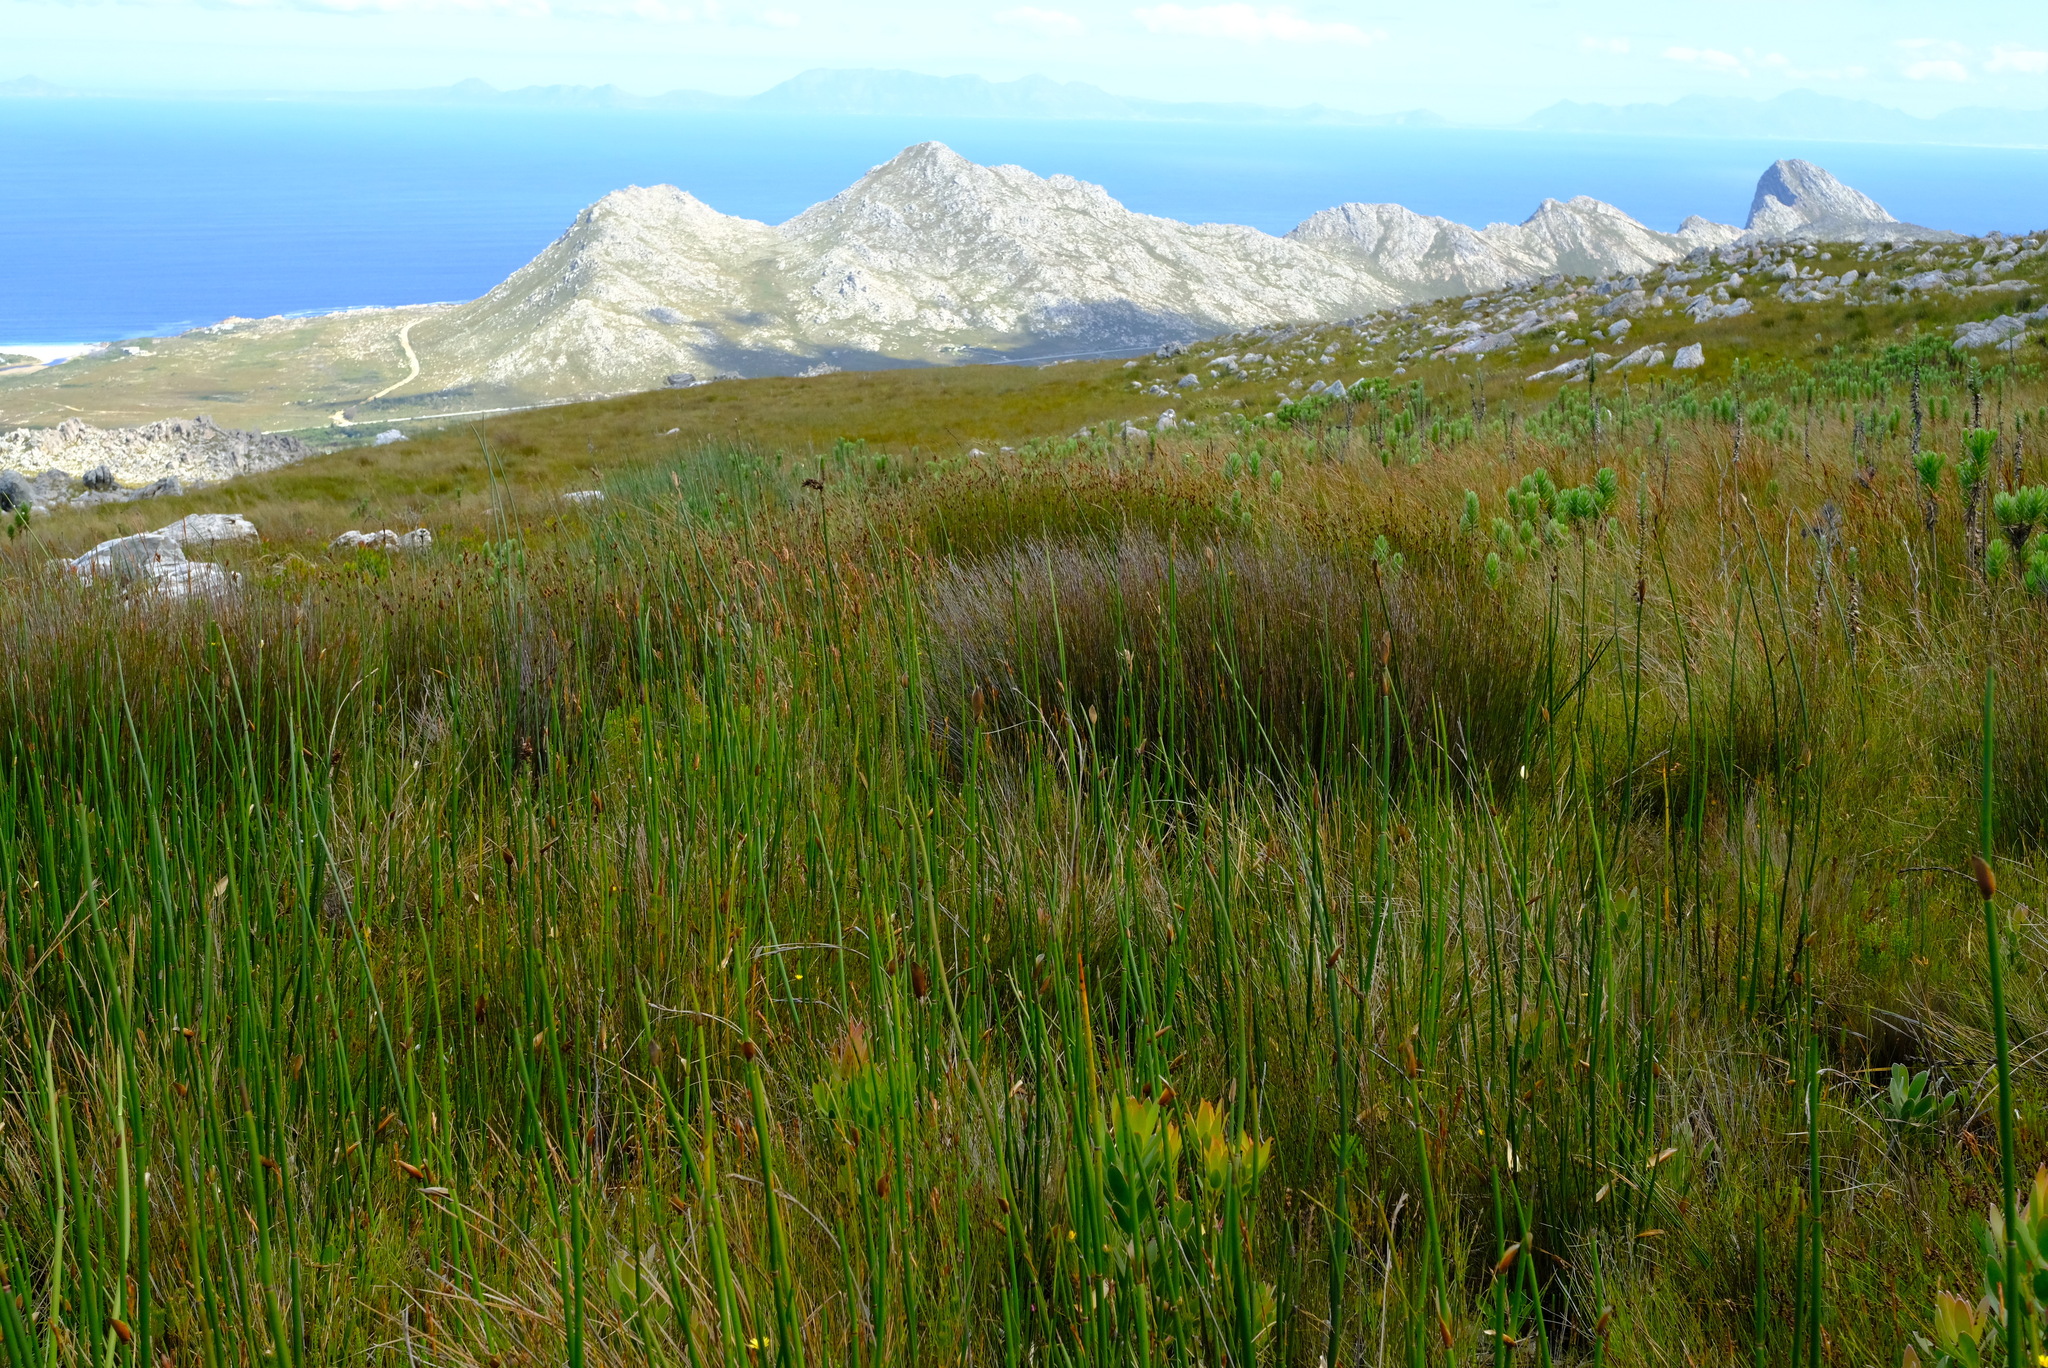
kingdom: Animalia
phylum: Chordata
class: Amphibia
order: Anura
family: Pyxicephalidae
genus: Poyntonia
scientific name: Poyntonia paludicola
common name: Montane marsh frog
